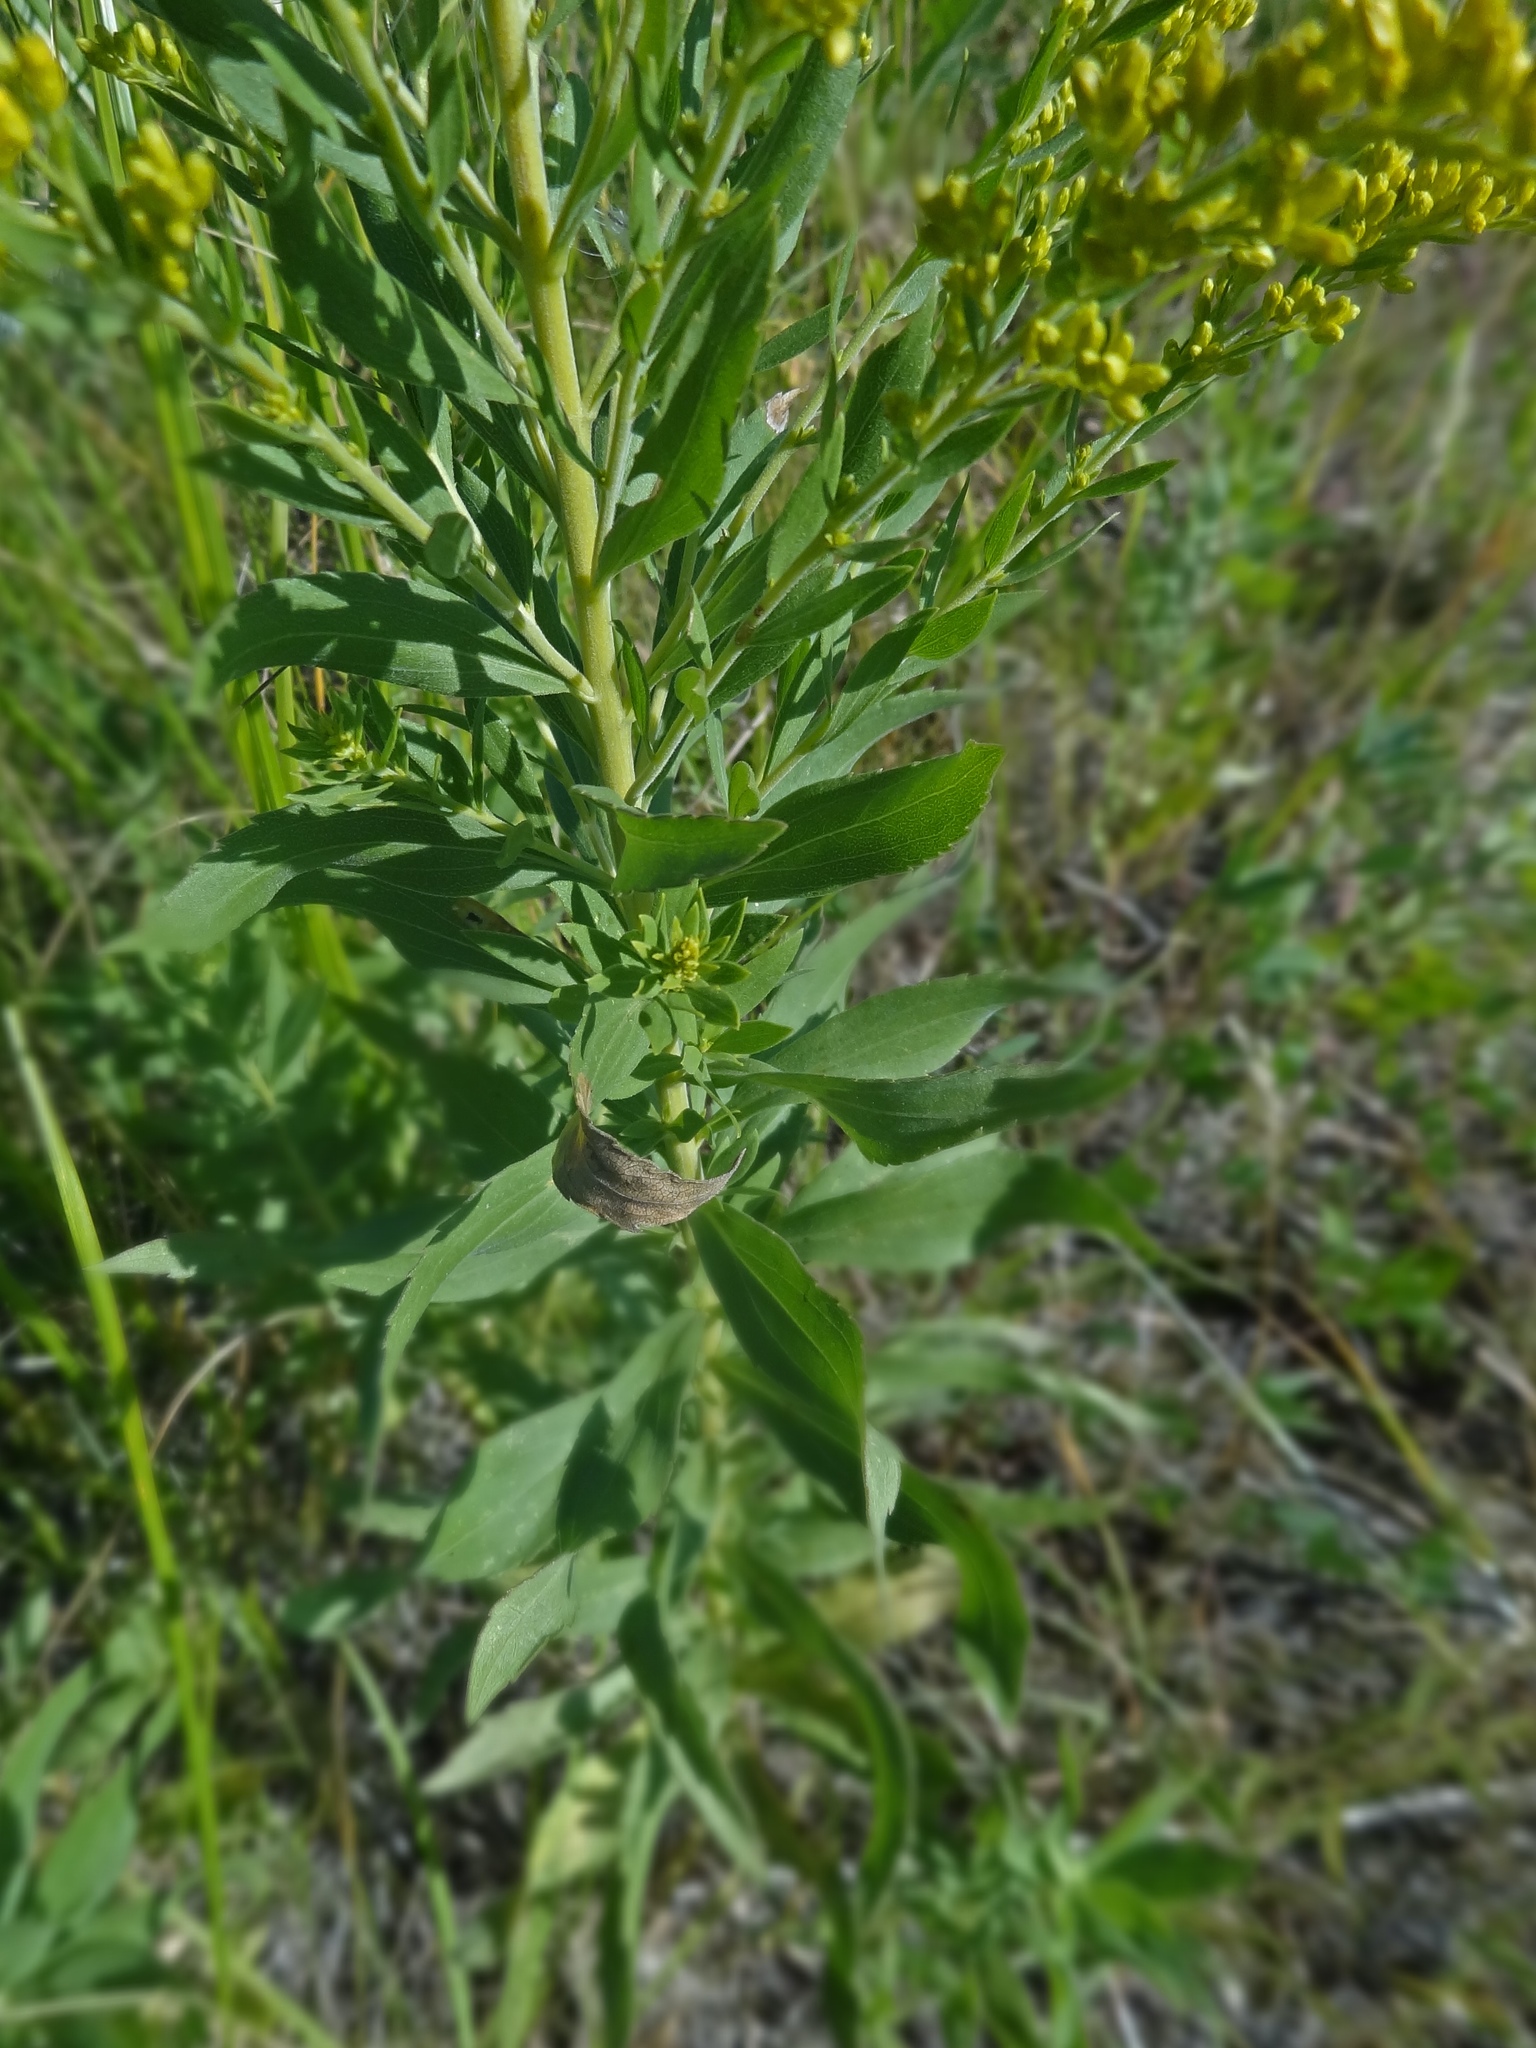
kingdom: Plantae
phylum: Tracheophyta
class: Magnoliopsida
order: Asterales
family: Asteraceae
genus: Solidago
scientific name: Solidago canadensis
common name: Canada goldenrod
